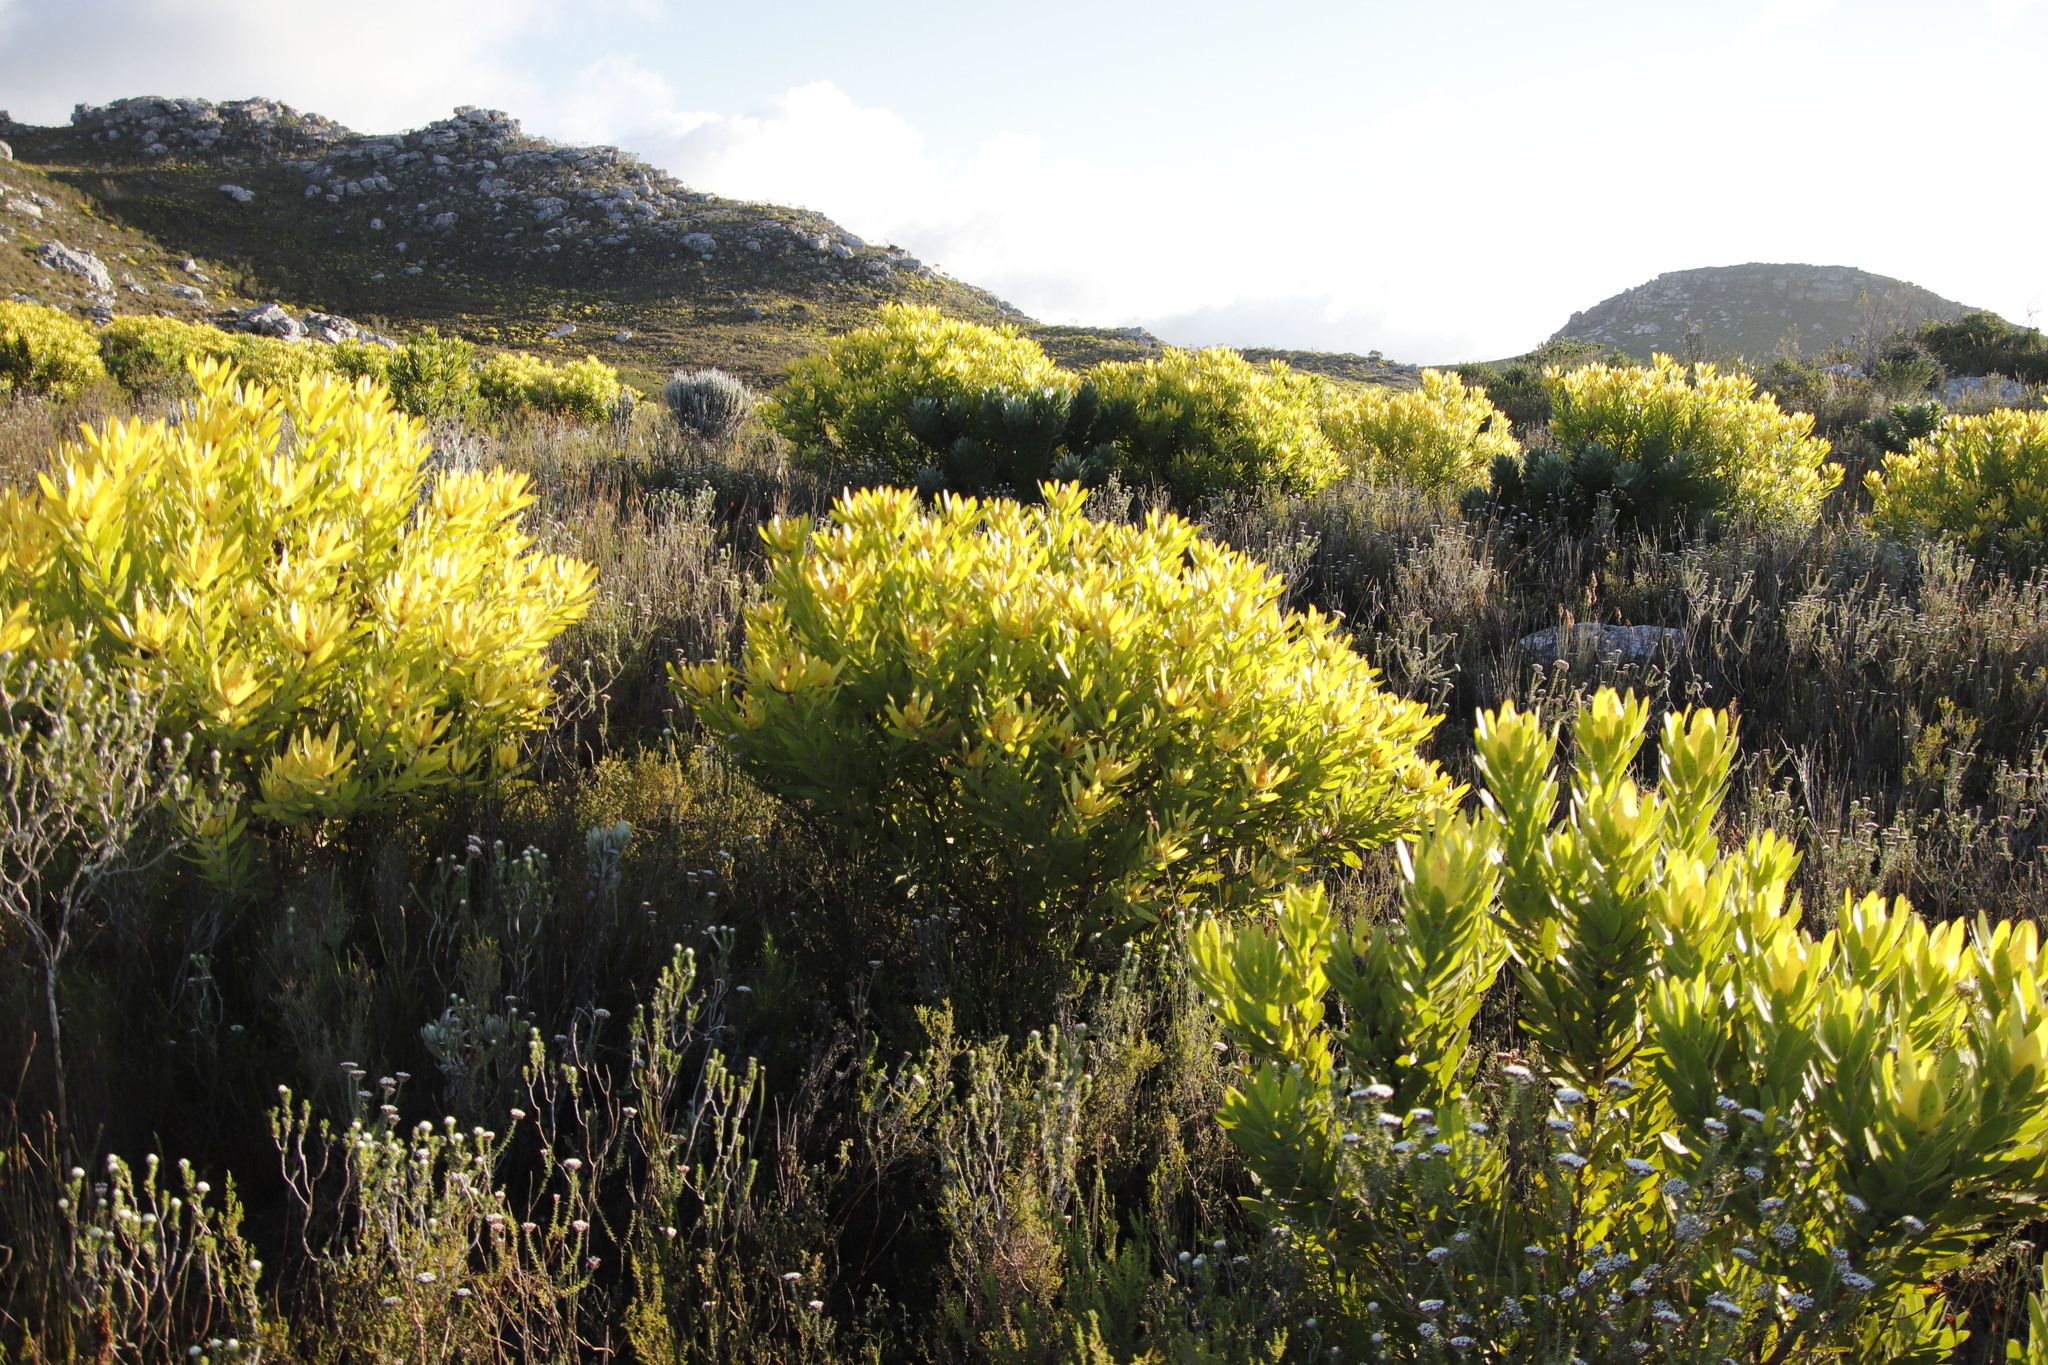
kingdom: Plantae
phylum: Tracheophyta
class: Magnoliopsida
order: Proteales
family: Proteaceae
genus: Leucadendron
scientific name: Leucadendron laureolum
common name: Golden sunshinebush
